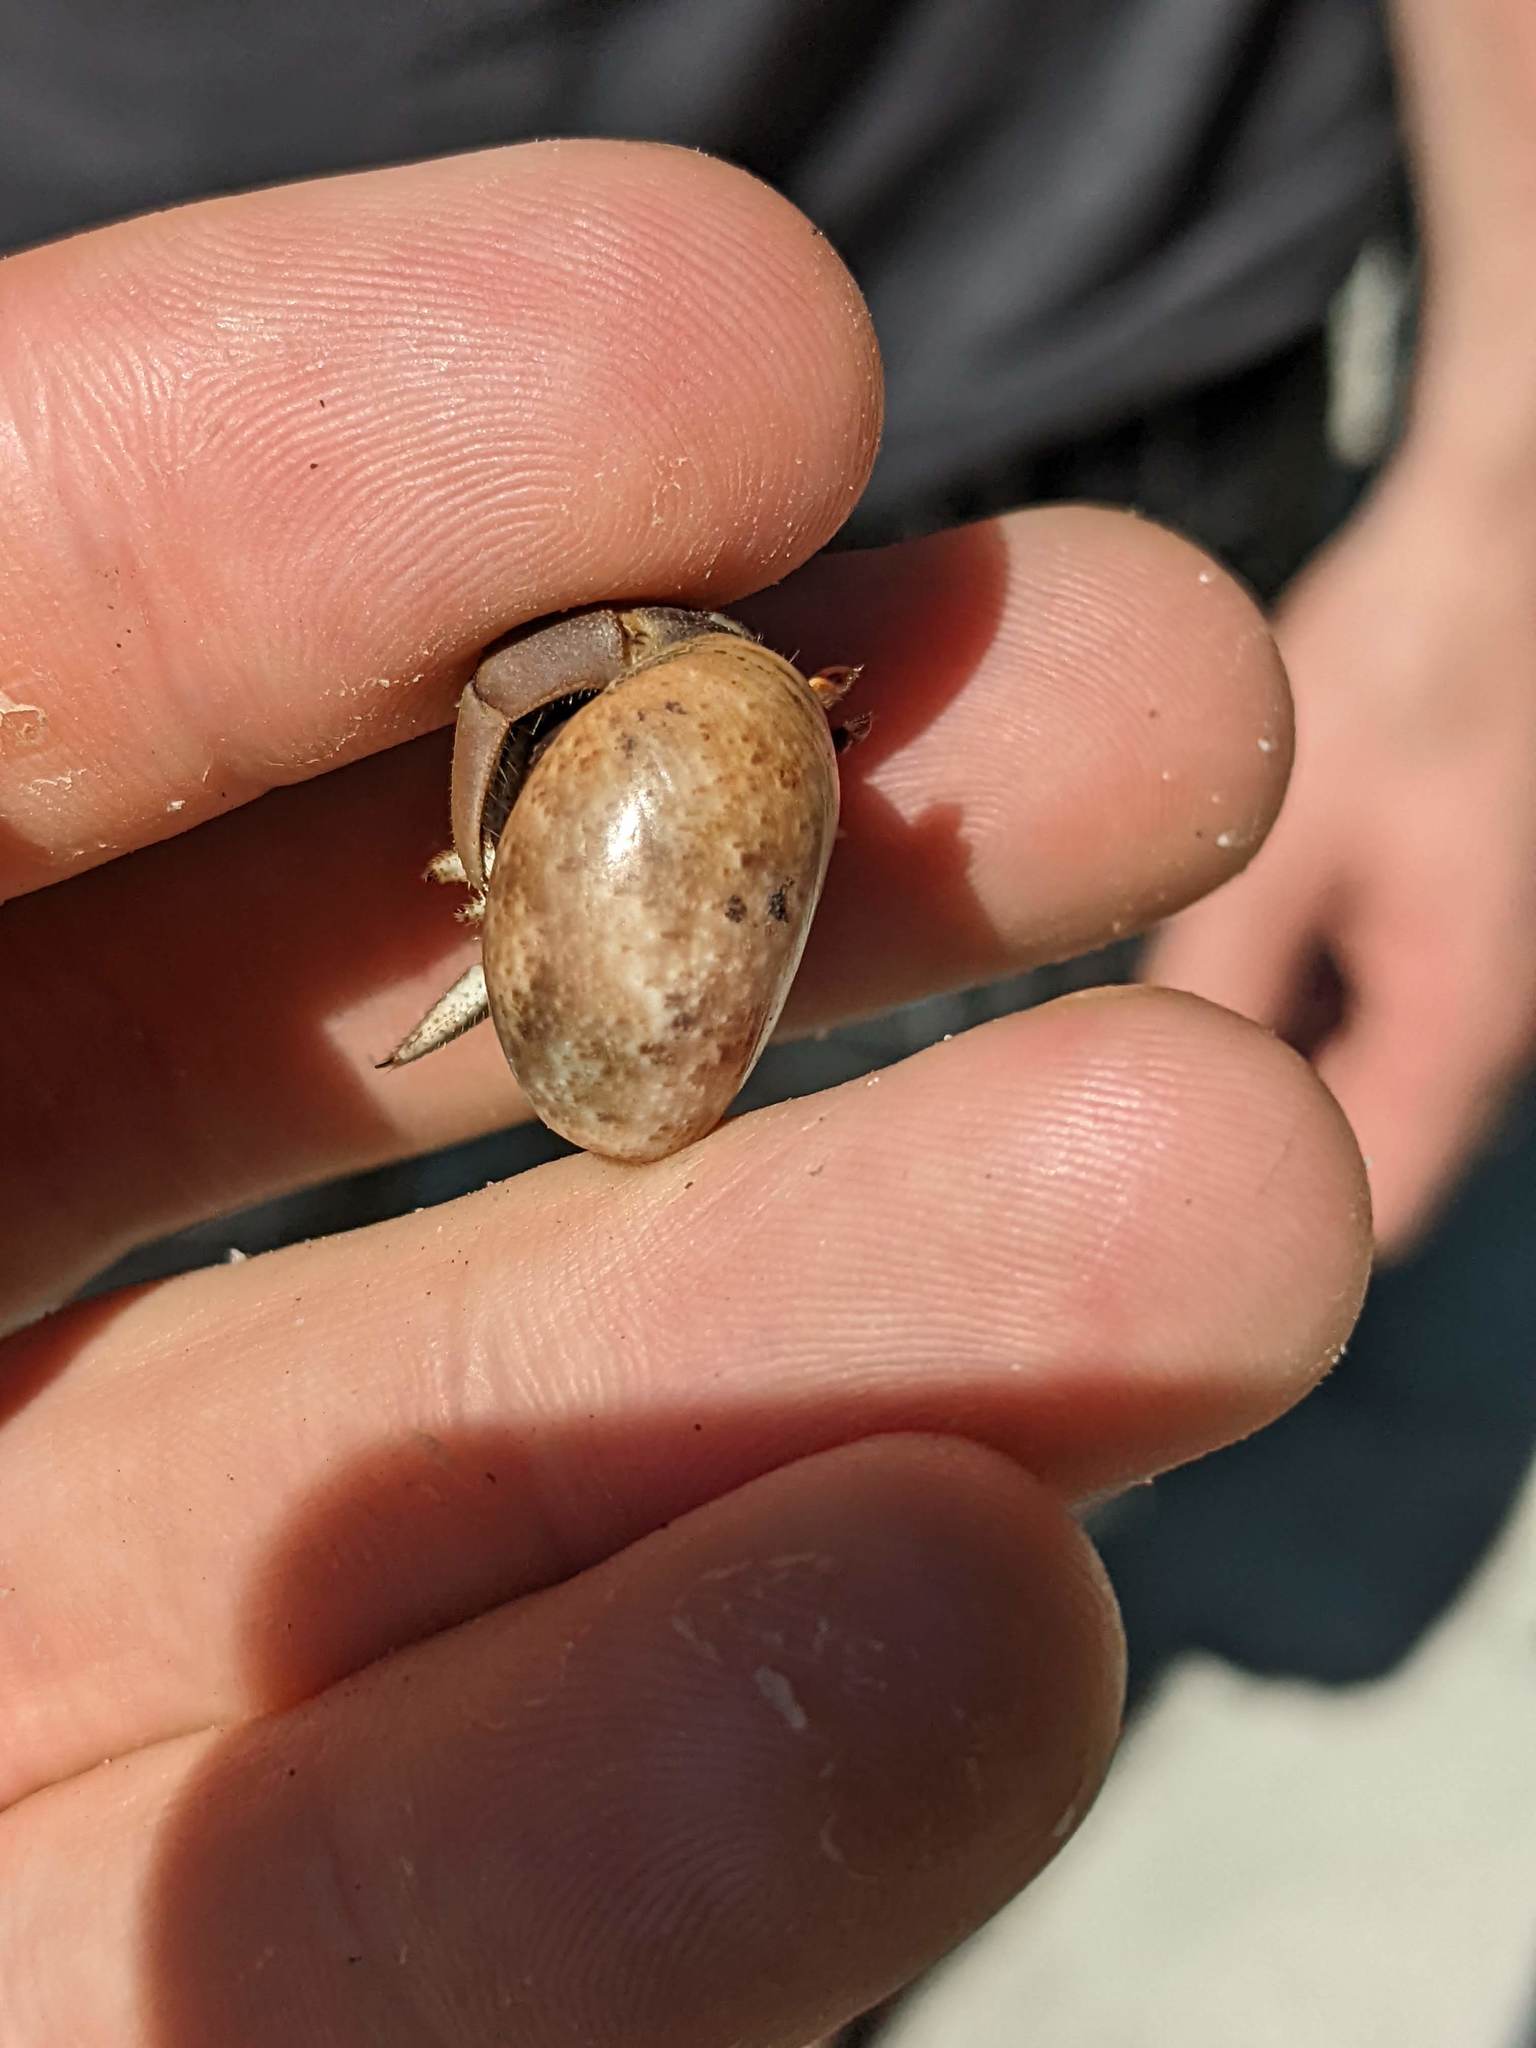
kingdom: Animalia
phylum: Mollusca
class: Gastropoda
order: Cephalaspidea
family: Bullidae
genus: Bulla
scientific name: Bulla gouldiana
